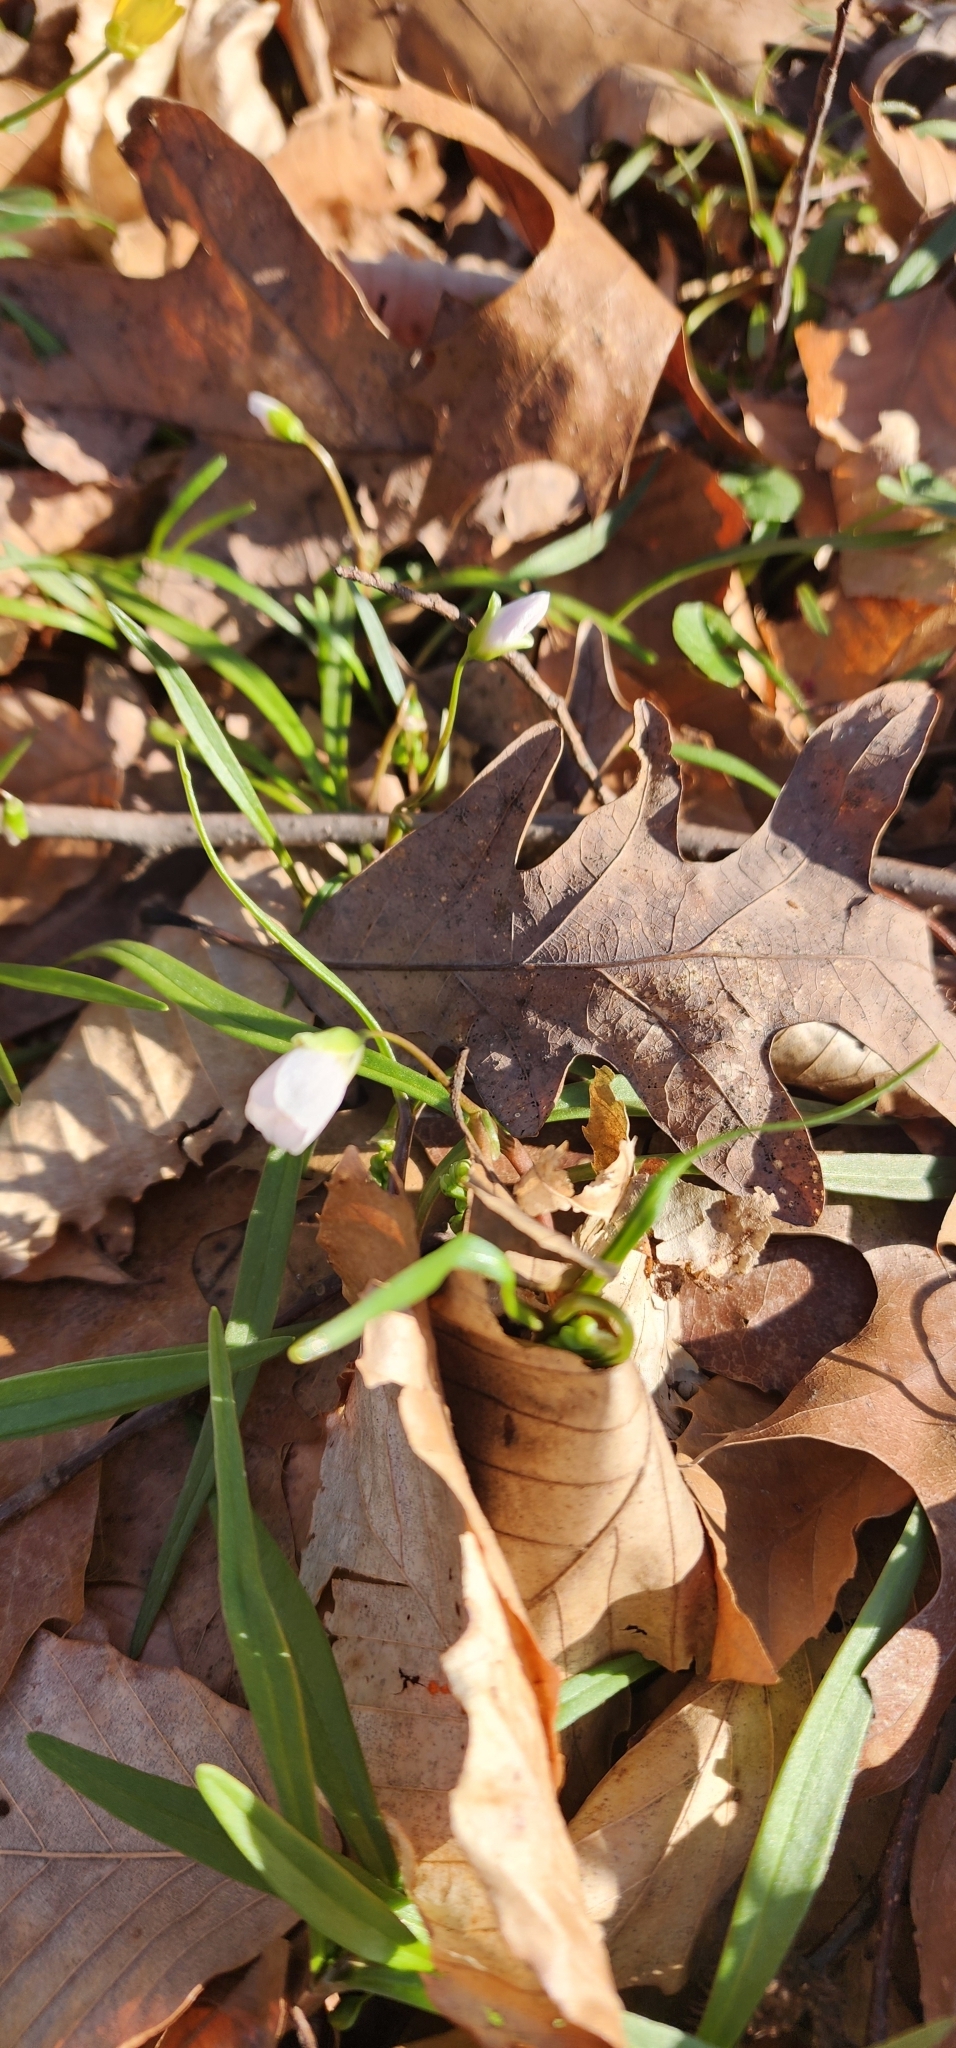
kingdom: Plantae
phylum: Tracheophyta
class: Magnoliopsida
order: Caryophyllales
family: Montiaceae
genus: Claytonia
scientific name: Claytonia virginica
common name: Virginia springbeauty
